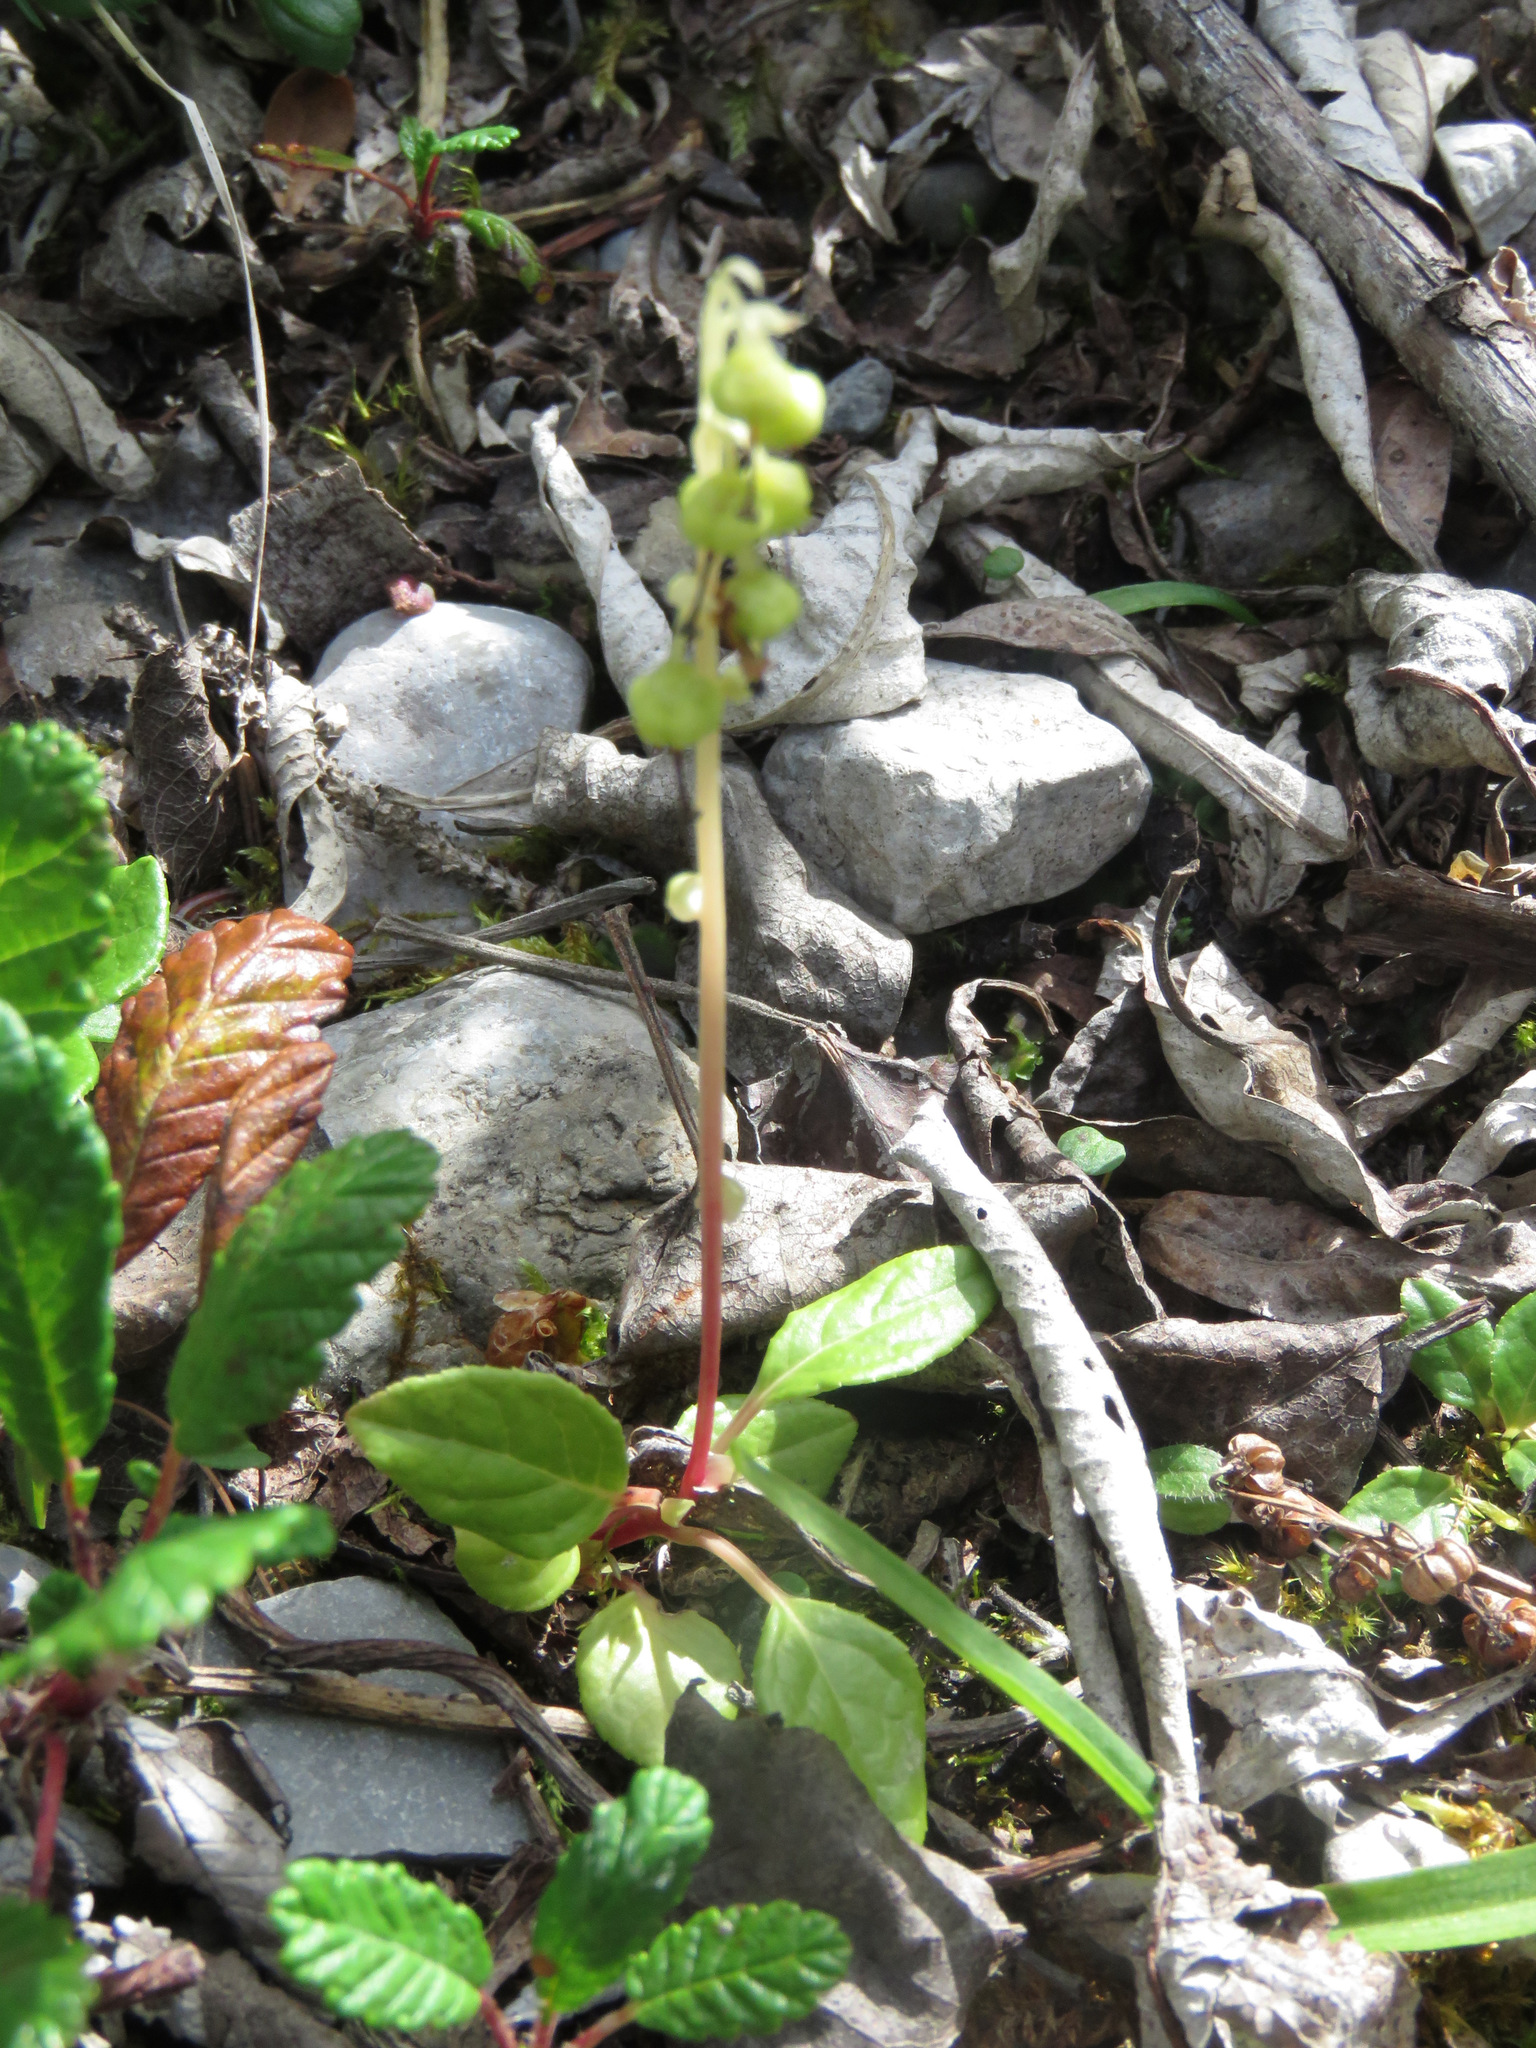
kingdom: Plantae
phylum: Tracheophyta
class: Magnoliopsida
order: Ericales
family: Ericaceae
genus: Orthilia
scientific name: Orthilia secunda
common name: One-sided orthilia
